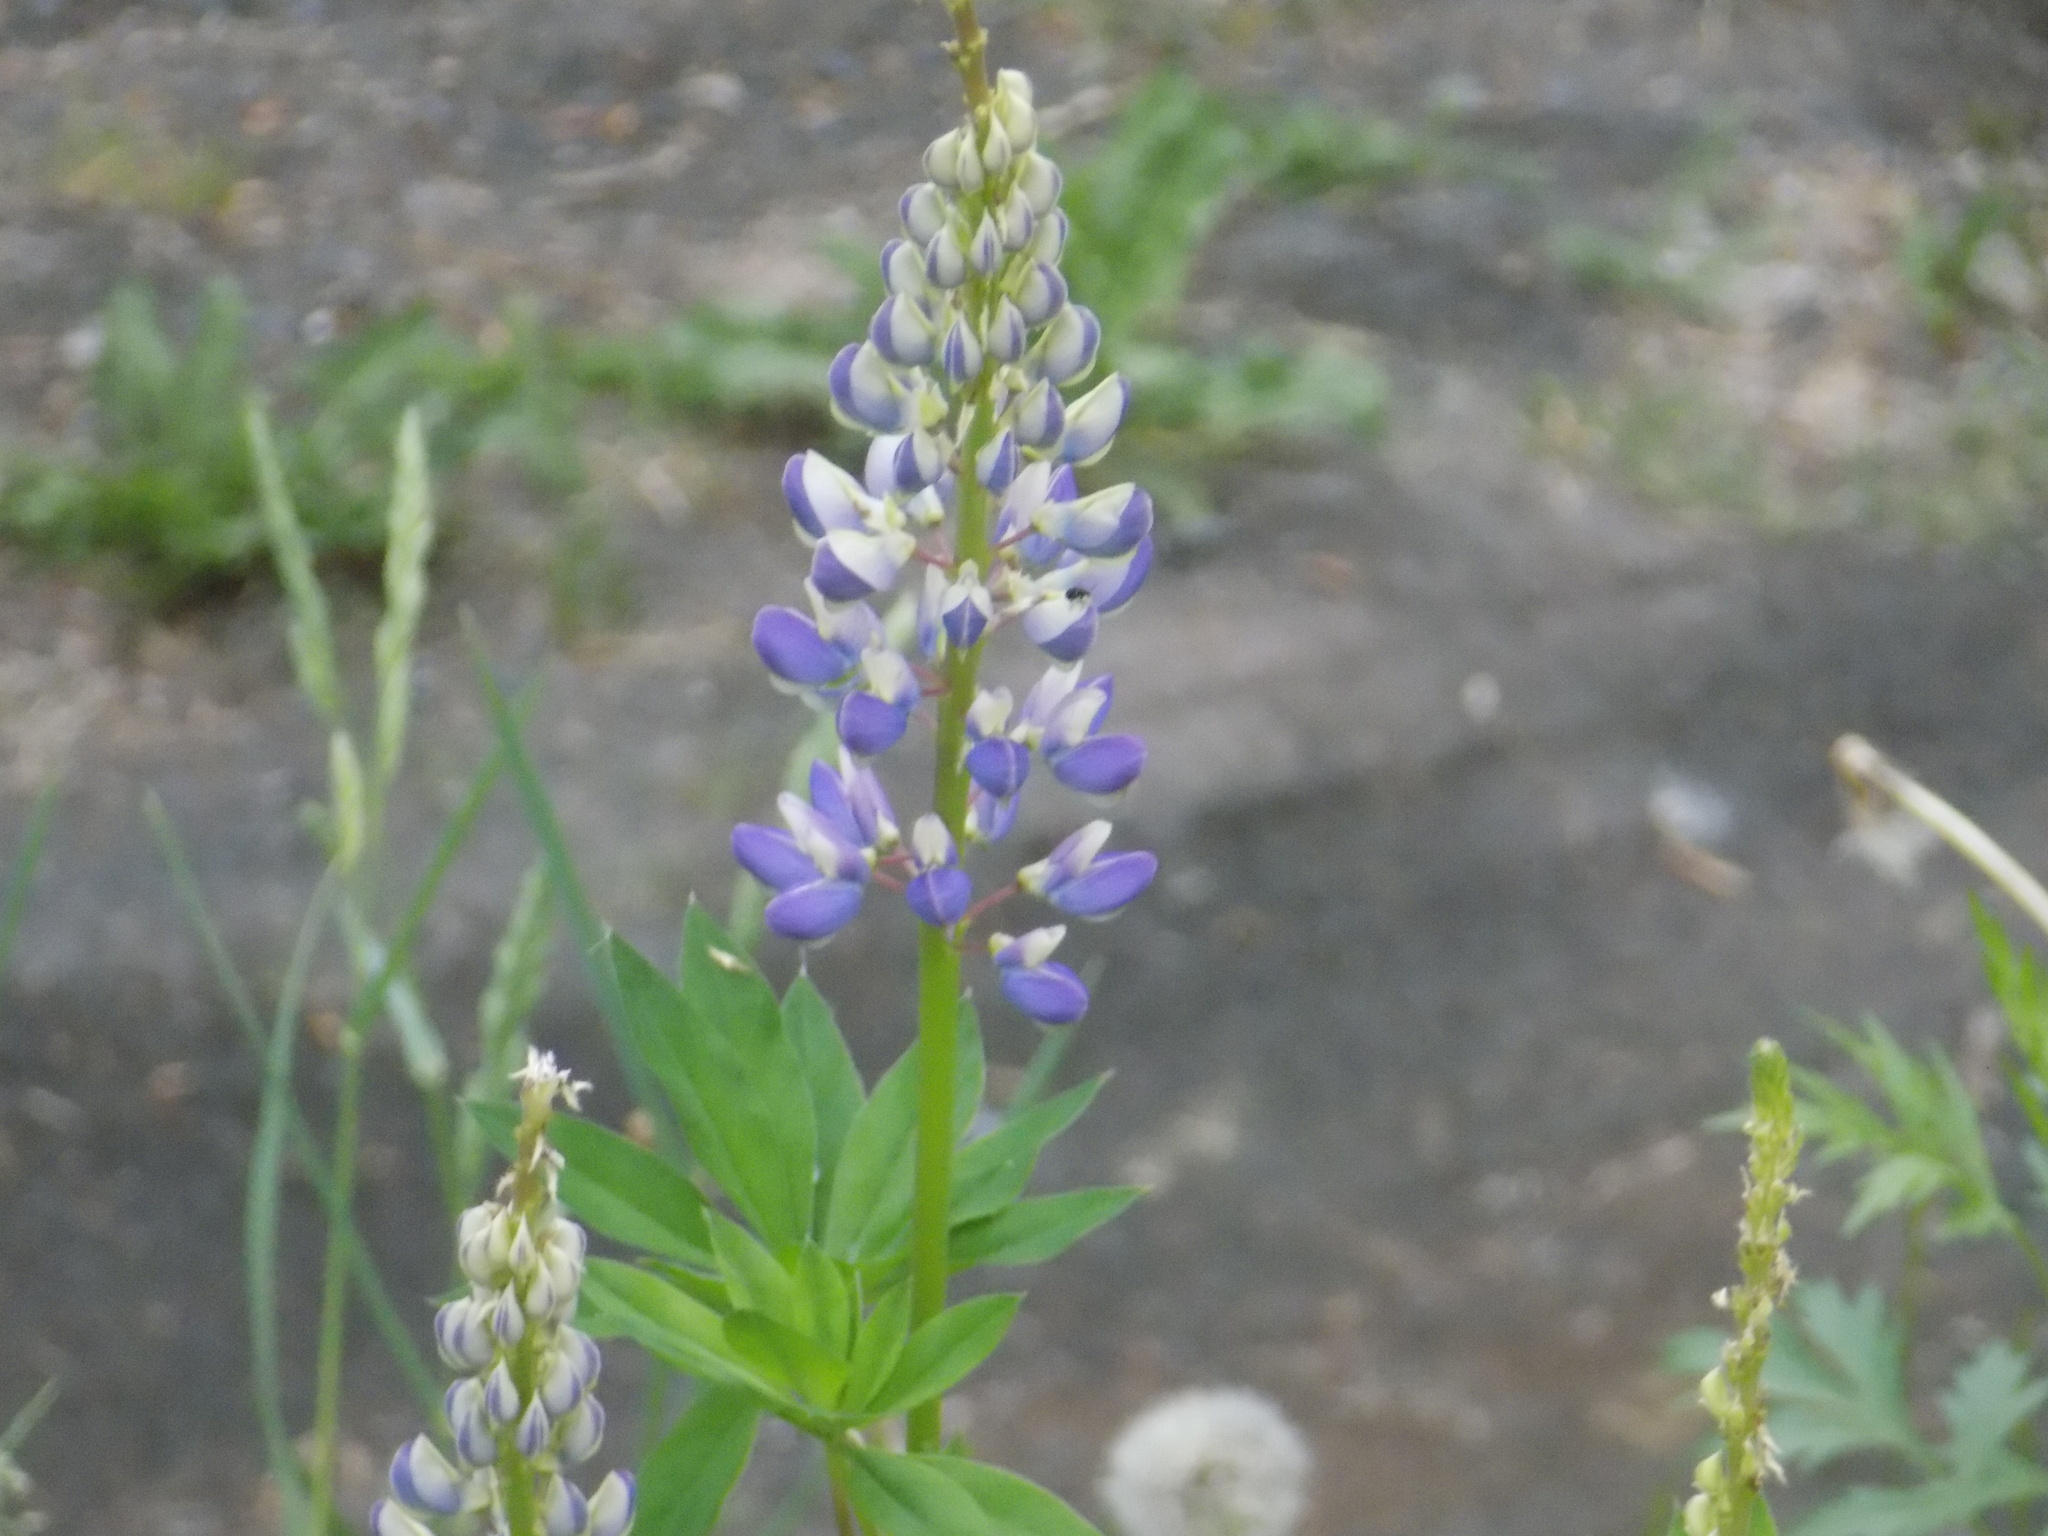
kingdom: Plantae
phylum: Tracheophyta
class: Magnoliopsida
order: Fabales
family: Fabaceae
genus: Lupinus
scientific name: Lupinus polyphyllus
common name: Garden lupin
